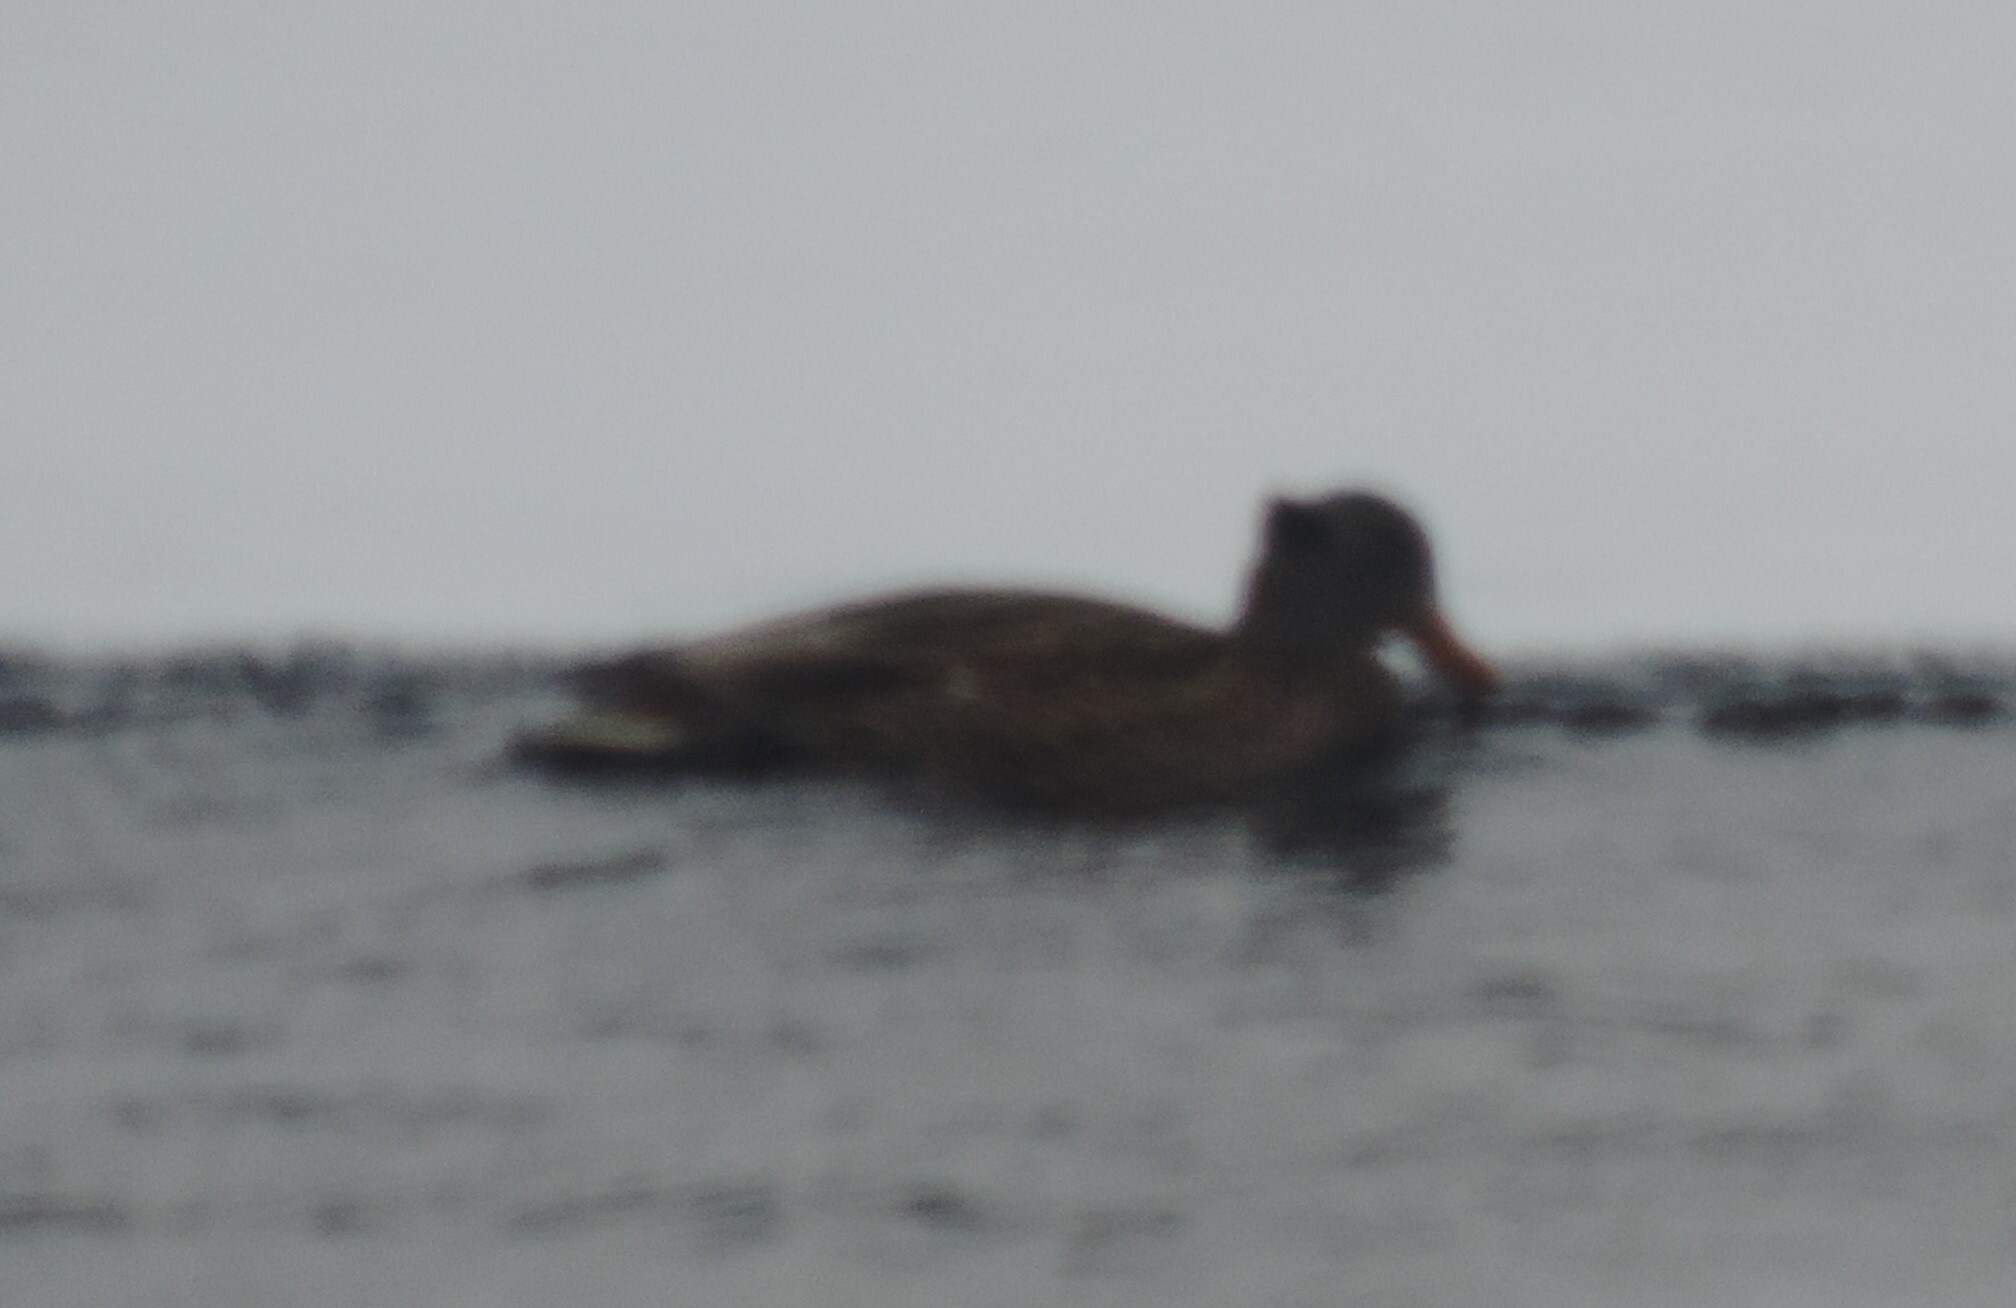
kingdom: Animalia
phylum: Chordata
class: Aves
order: Anseriformes
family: Anatidae
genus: Anas
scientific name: Anas platyrhynchos
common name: Mallard
